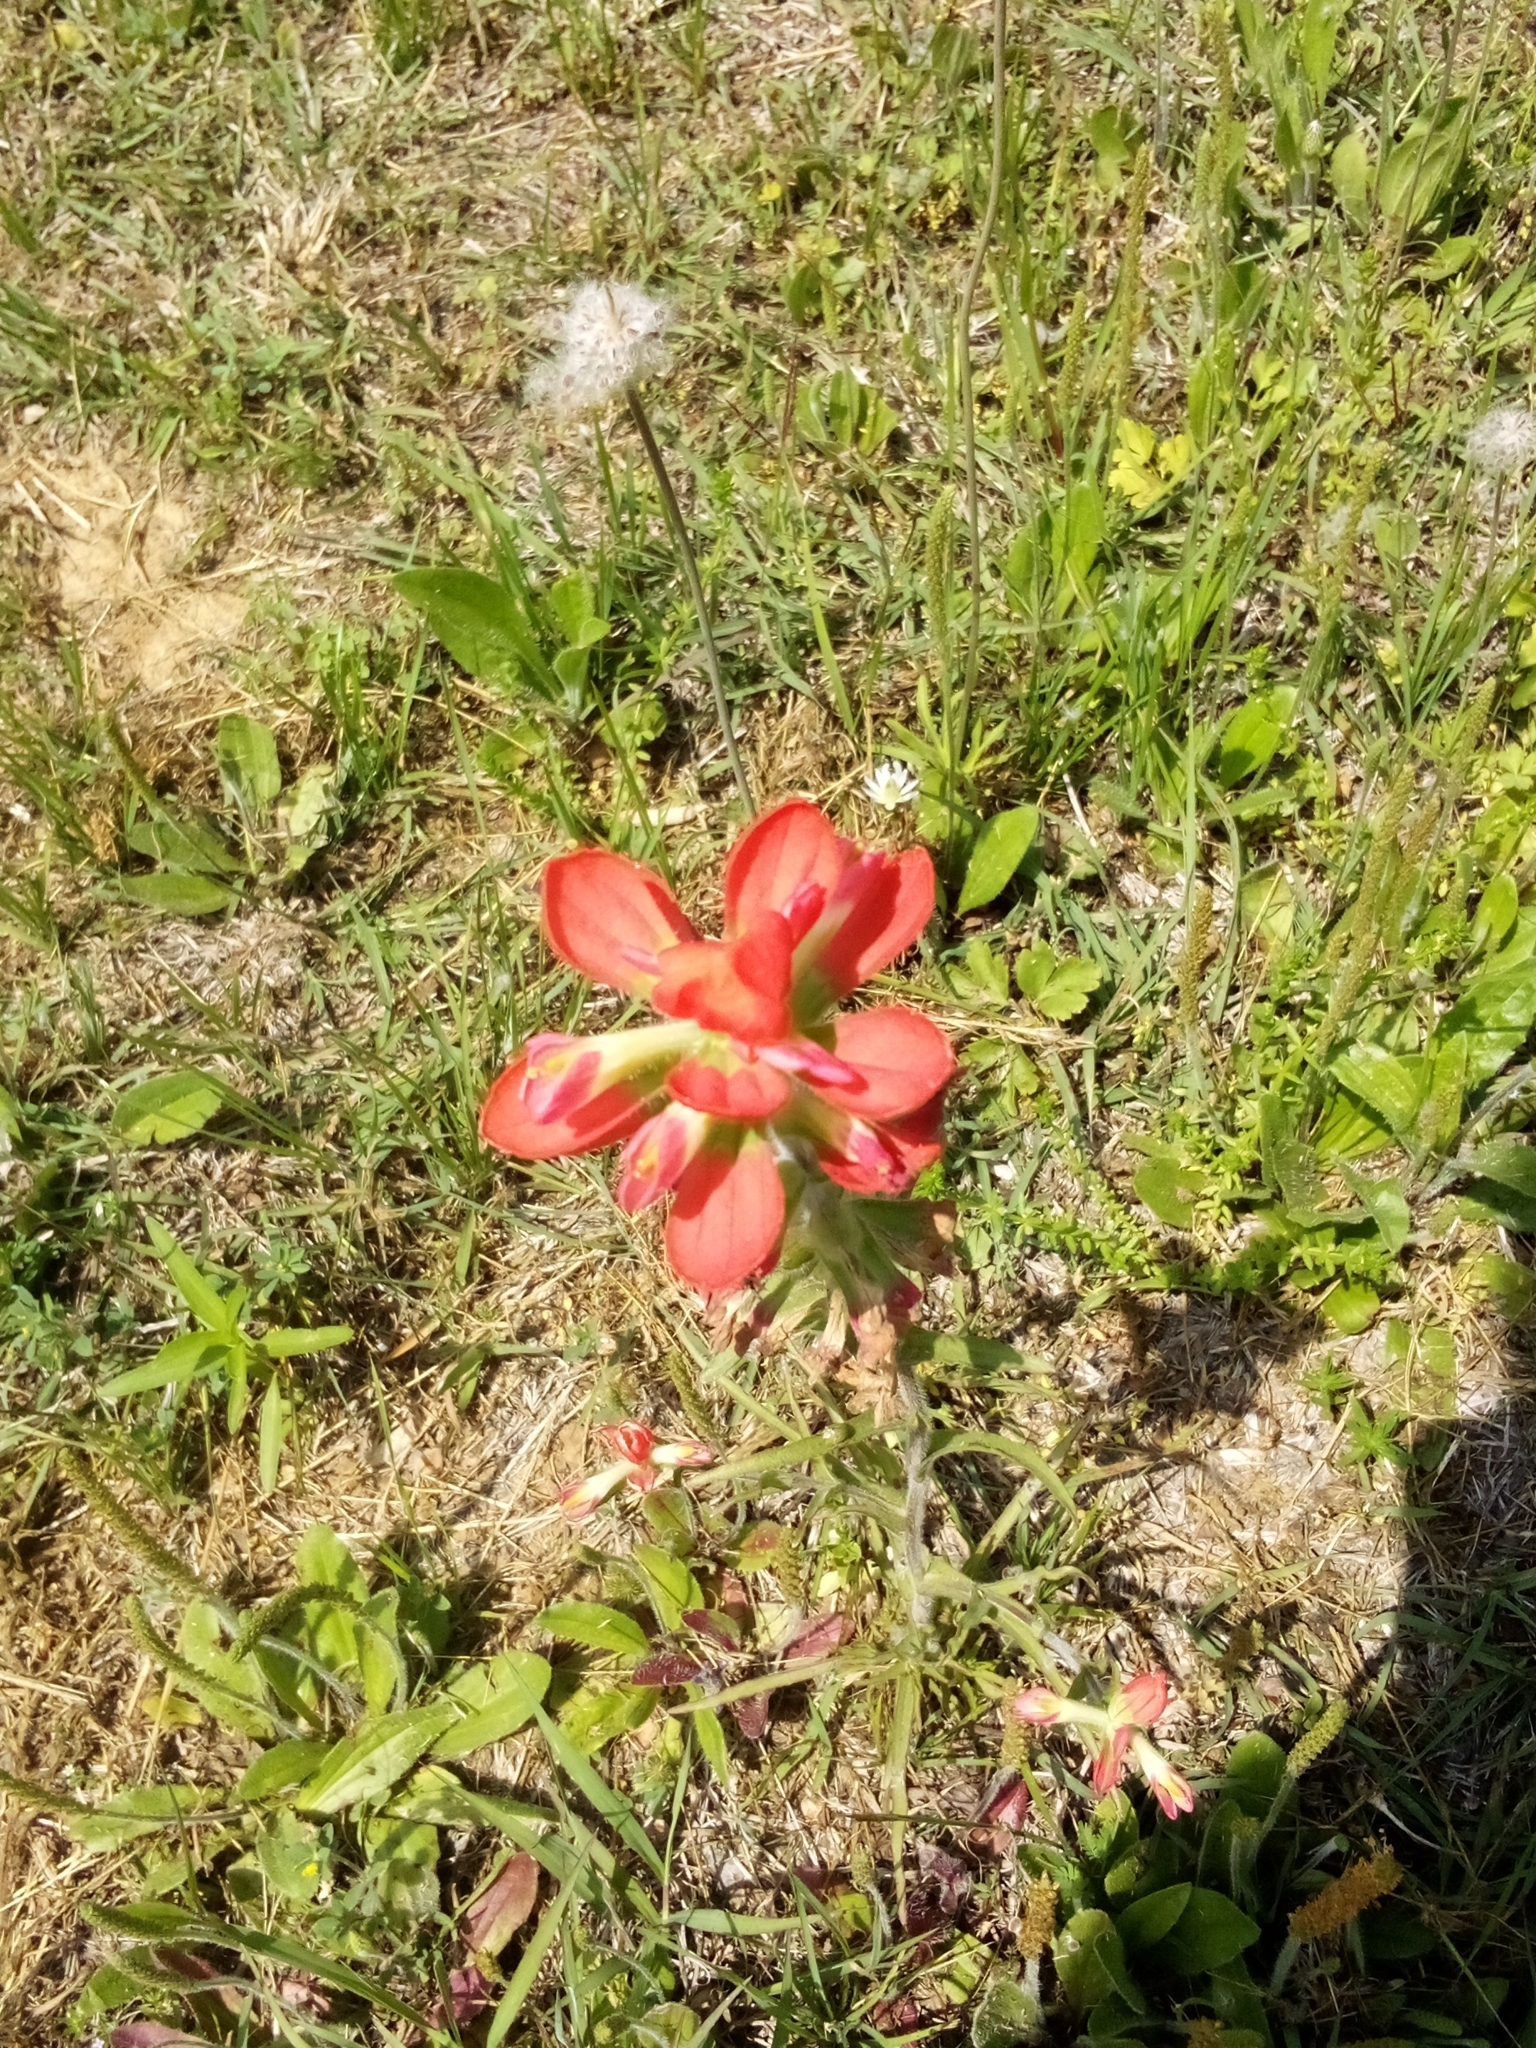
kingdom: Plantae
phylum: Tracheophyta
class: Magnoliopsida
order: Lamiales
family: Orobanchaceae
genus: Castilleja
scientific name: Castilleja indivisa
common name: Texas paintbrush
